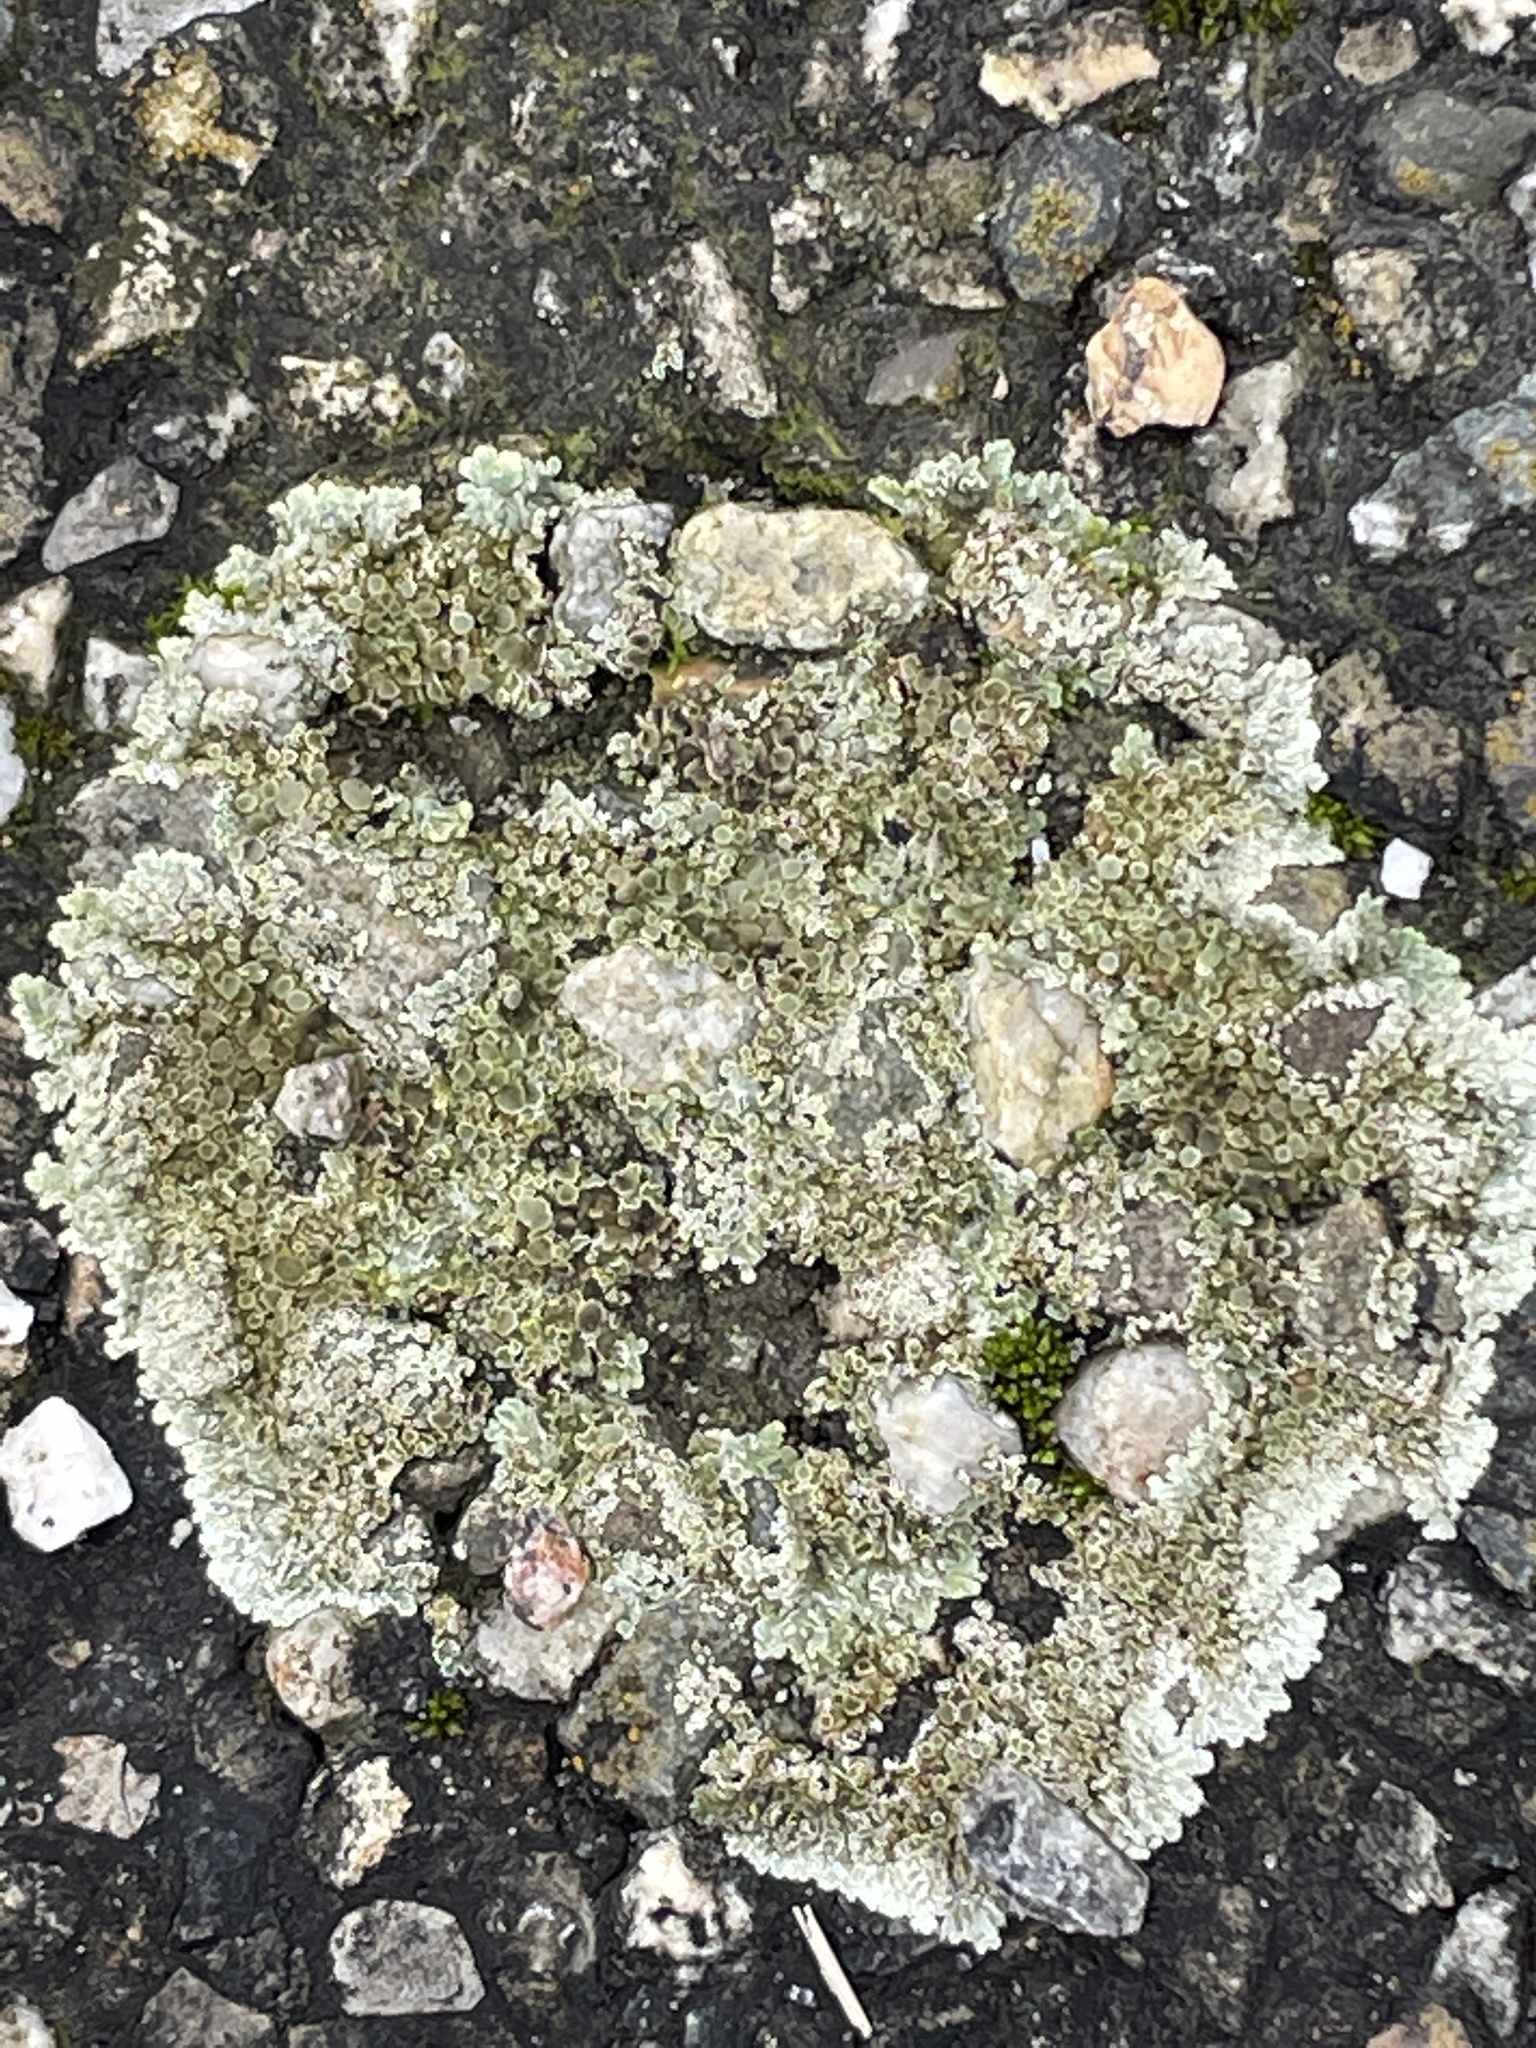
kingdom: Fungi
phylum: Ascomycota
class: Lecanoromycetes
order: Lecanorales
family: Lecanoraceae
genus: Protoparmeliopsis
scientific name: Protoparmeliopsis muralis
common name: Stonewall rim lichen
